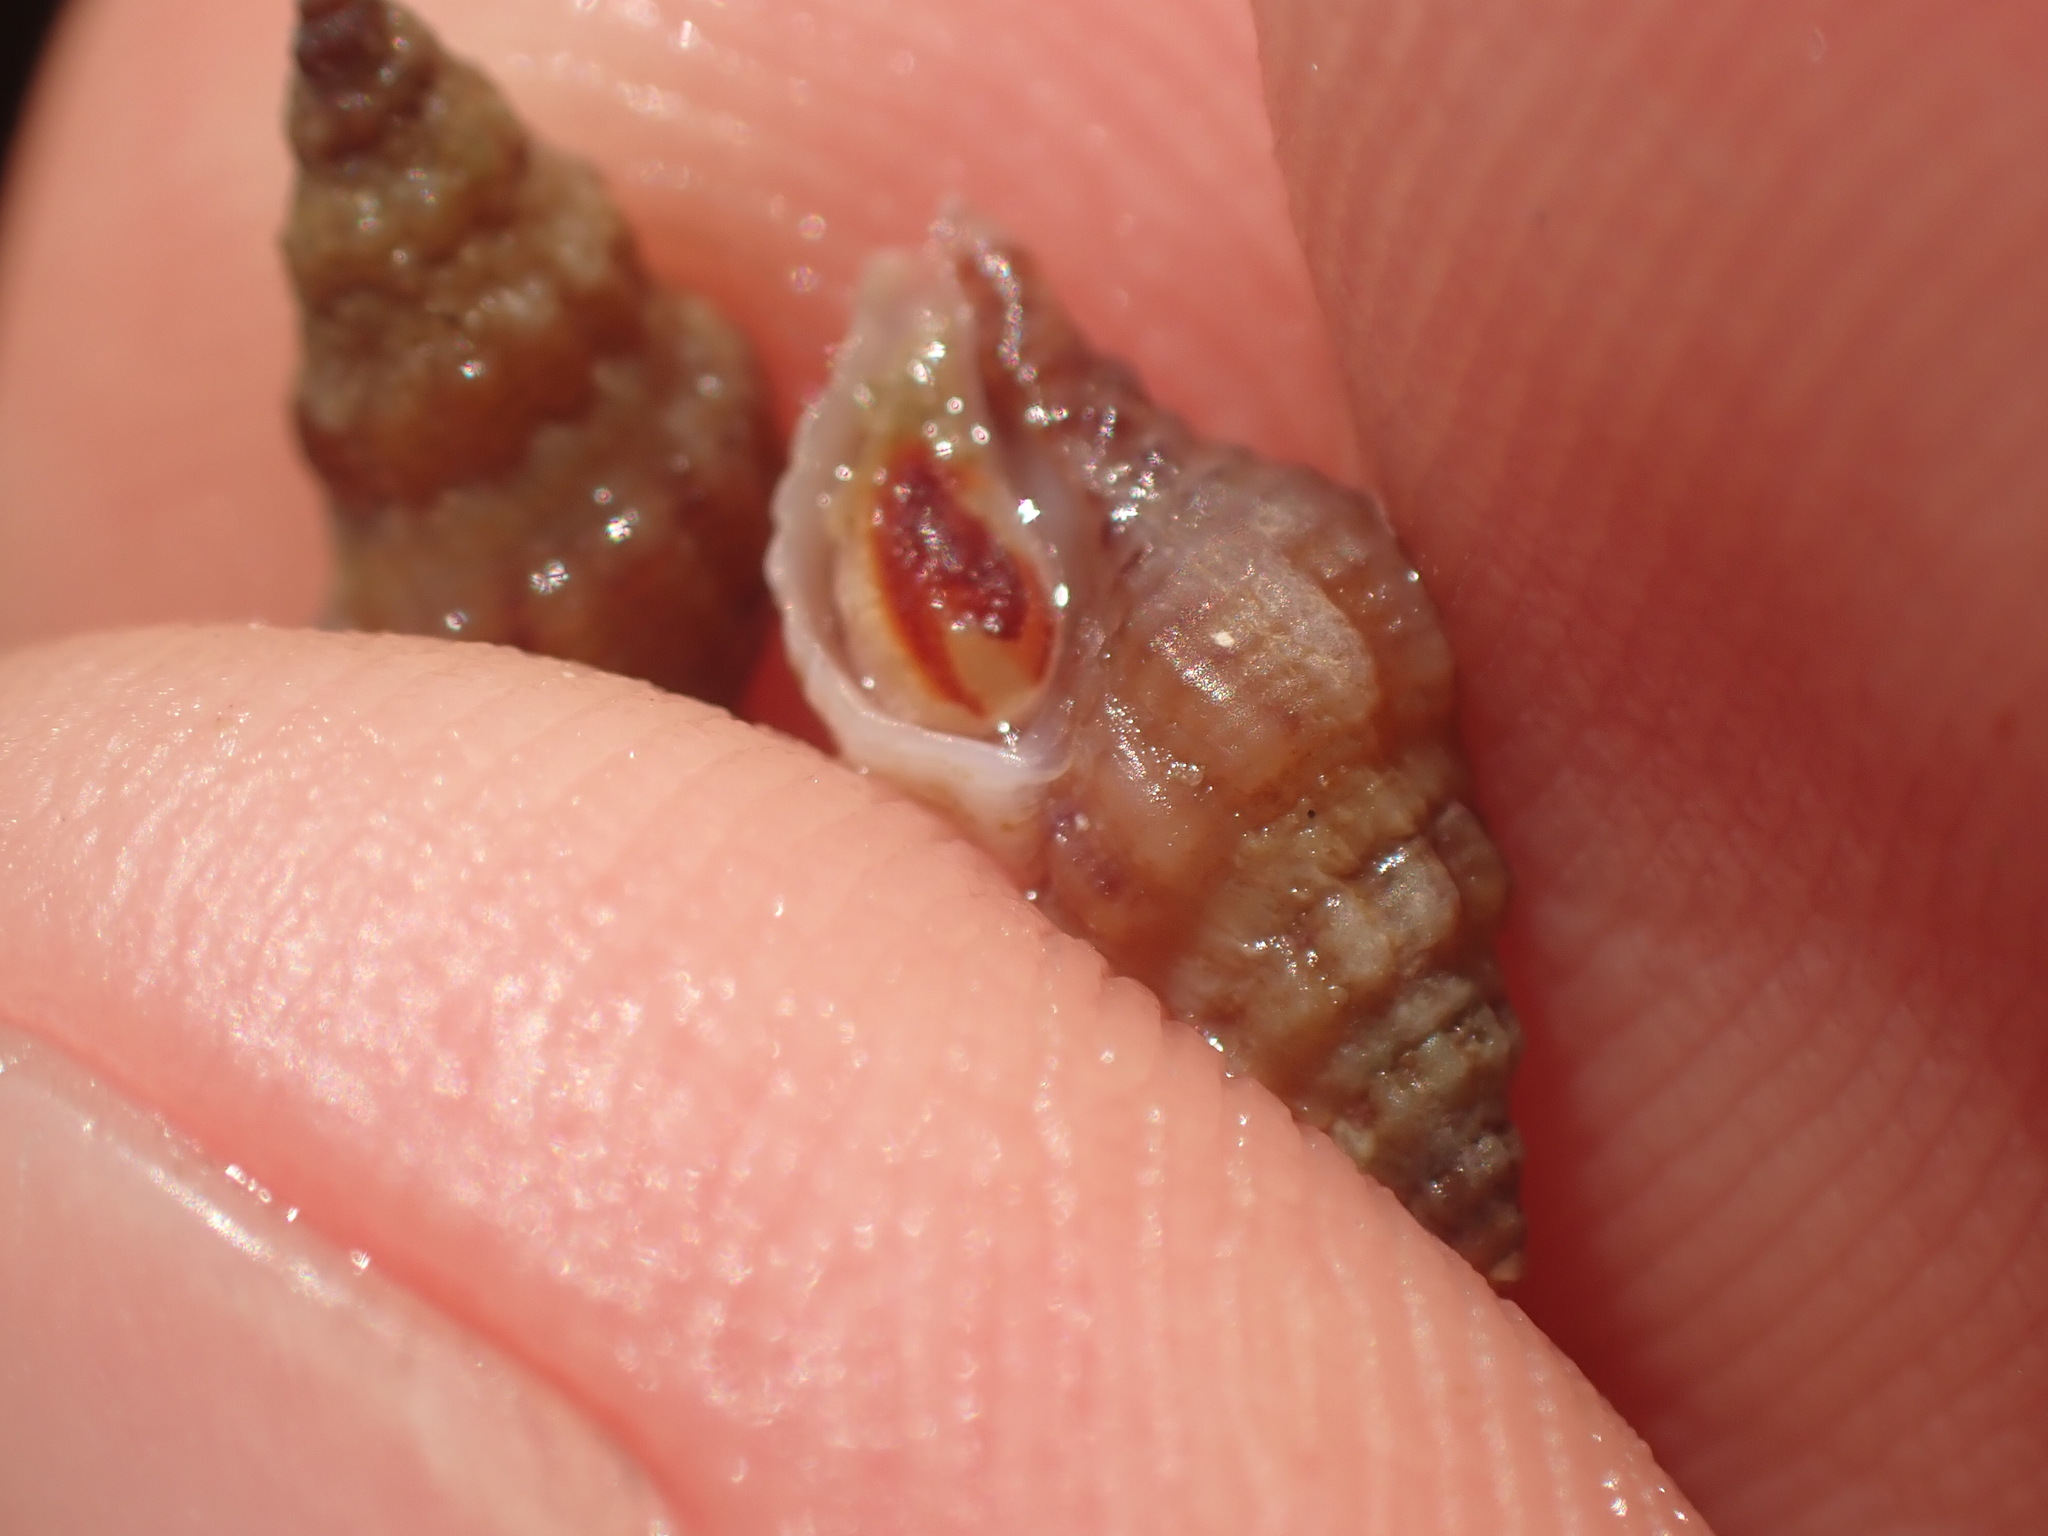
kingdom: Animalia
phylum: Mollusca
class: Gastropoda
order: Neogastropoda
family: Muricidae
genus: Lamellitrophon
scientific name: Lamellitrophon traversi
